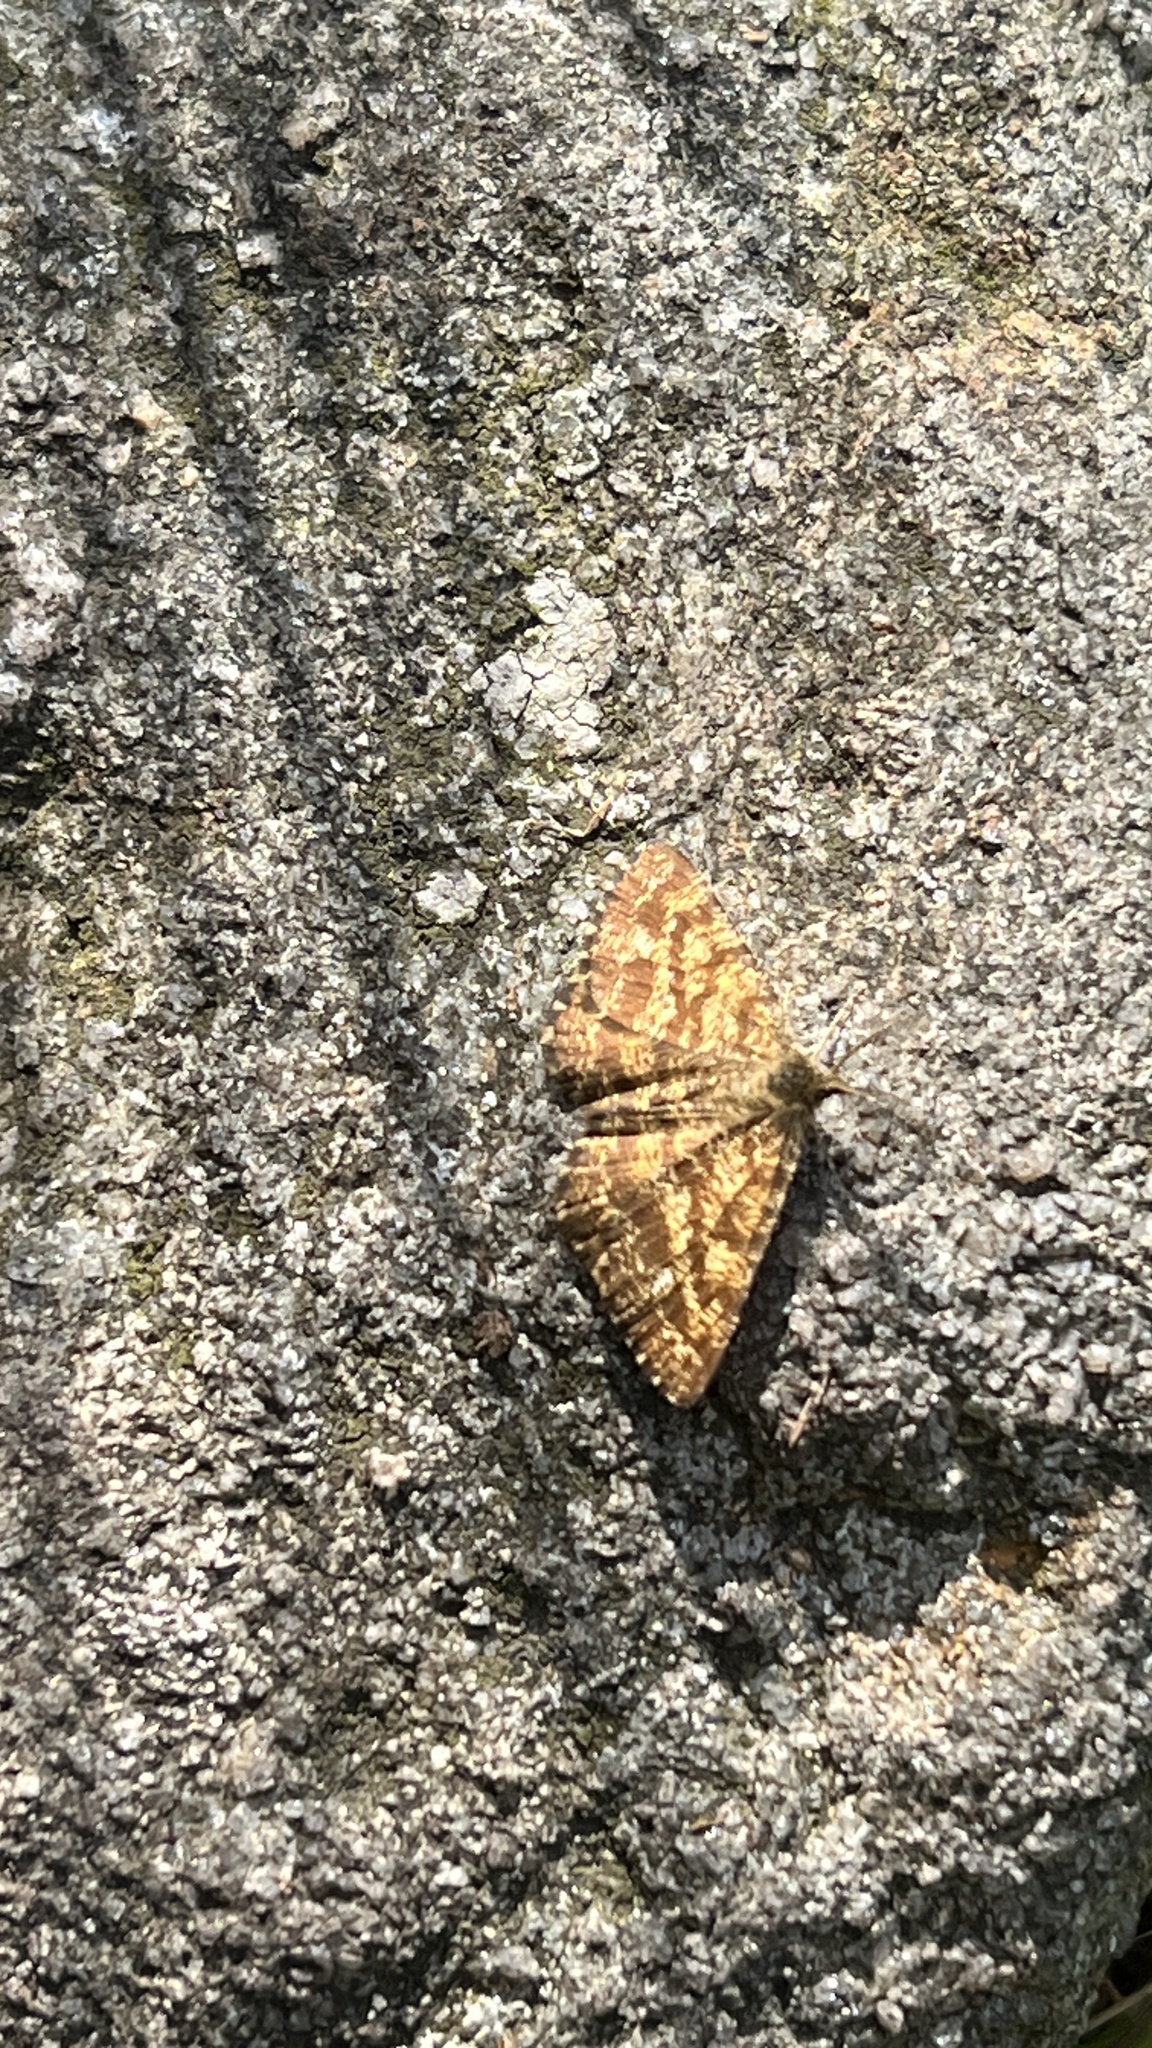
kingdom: Animalia
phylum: Arthropoda
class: Insecta
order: Lepidoptera
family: Geometridae
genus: Ematurga
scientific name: Ematurga atomaria
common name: Common heath
